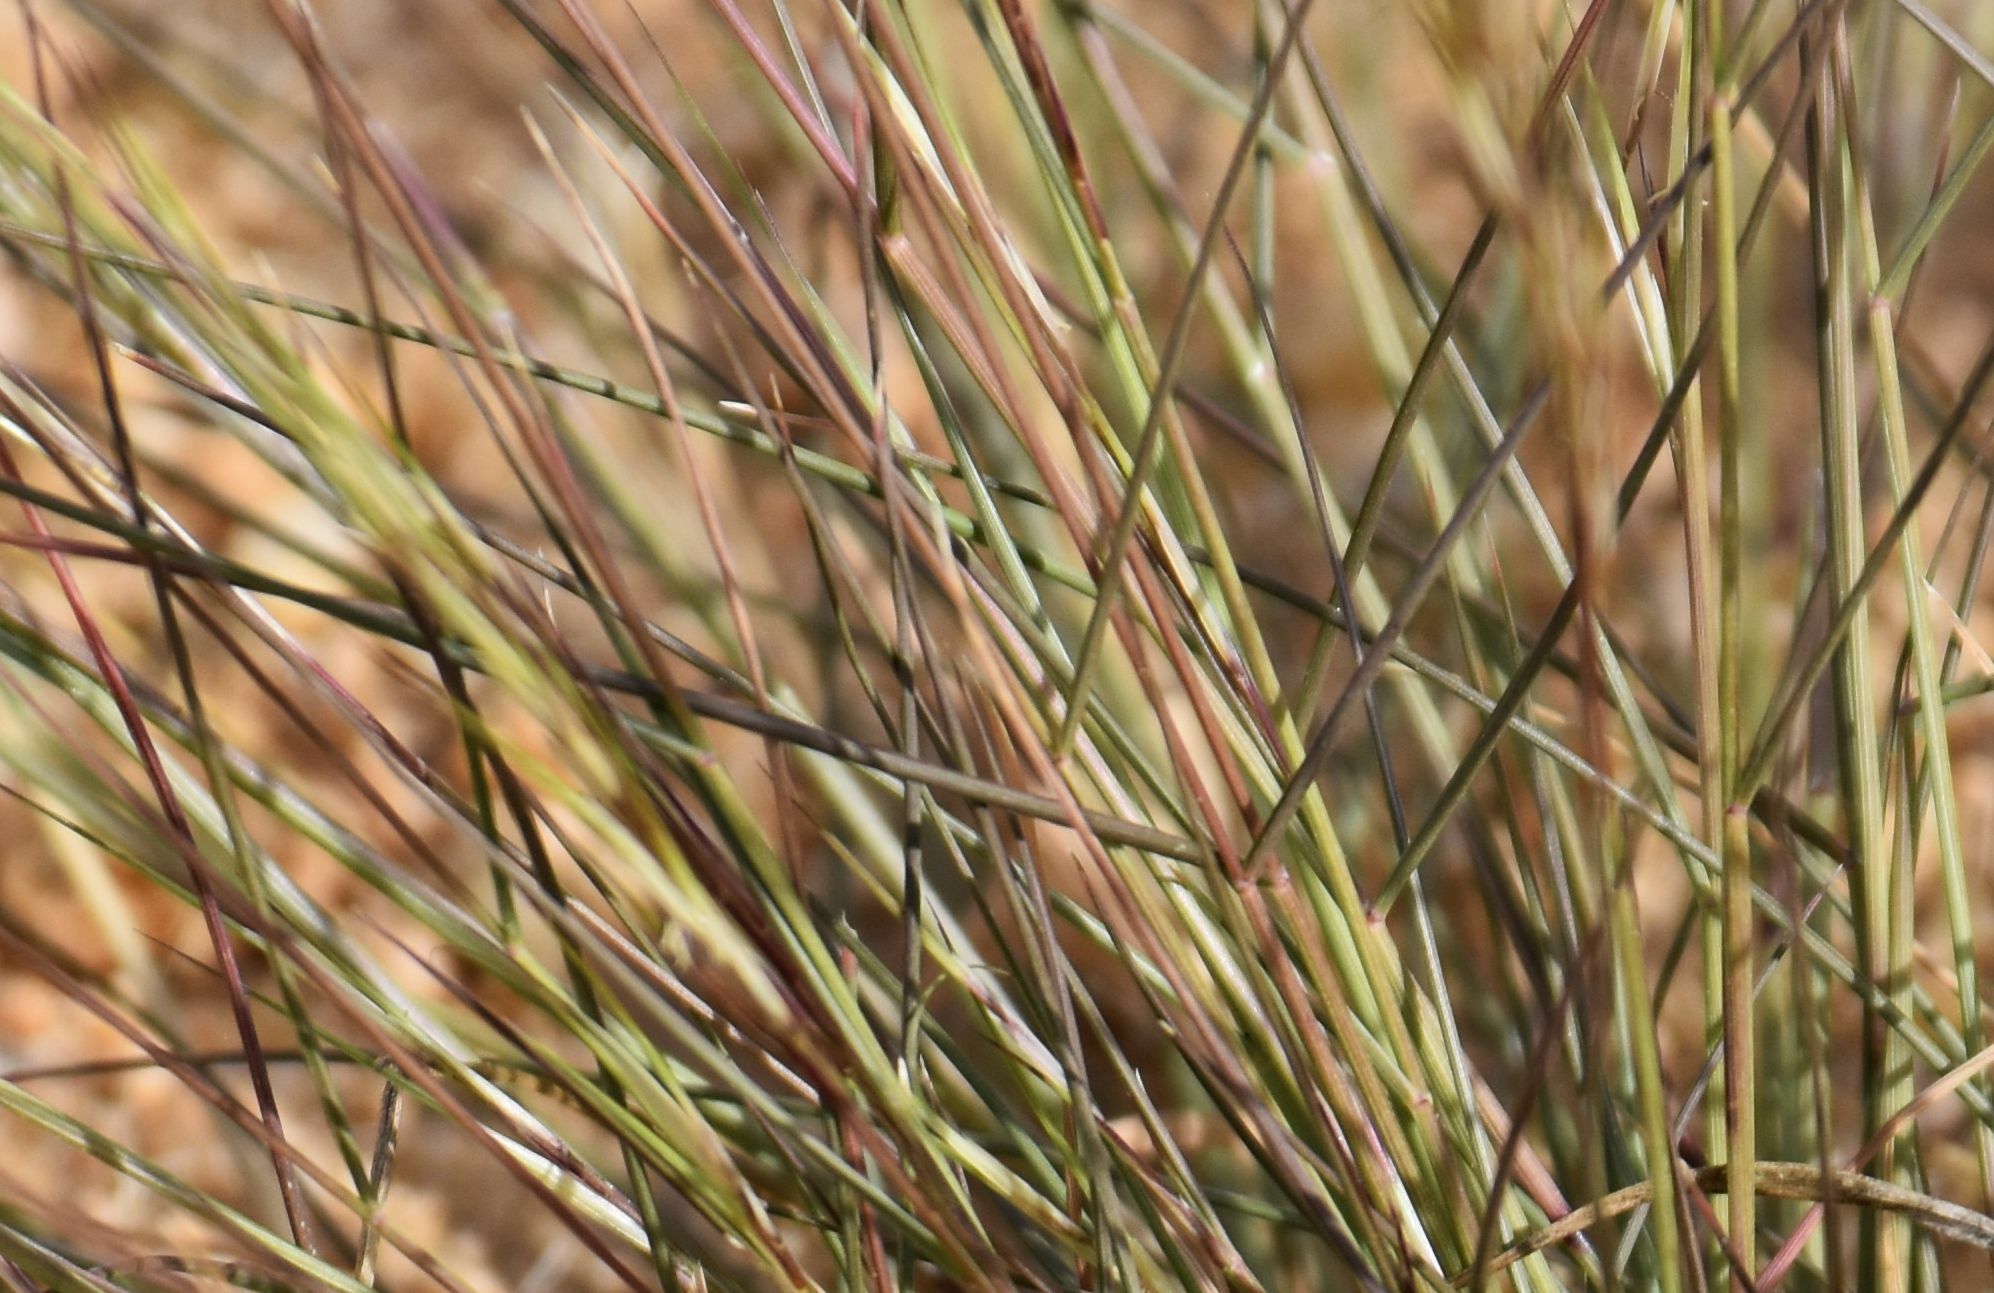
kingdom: Plantae
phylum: Tracheophyta
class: Liliopsida
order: Poales
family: Poaceae
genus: Aristida
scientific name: Aristida californica
